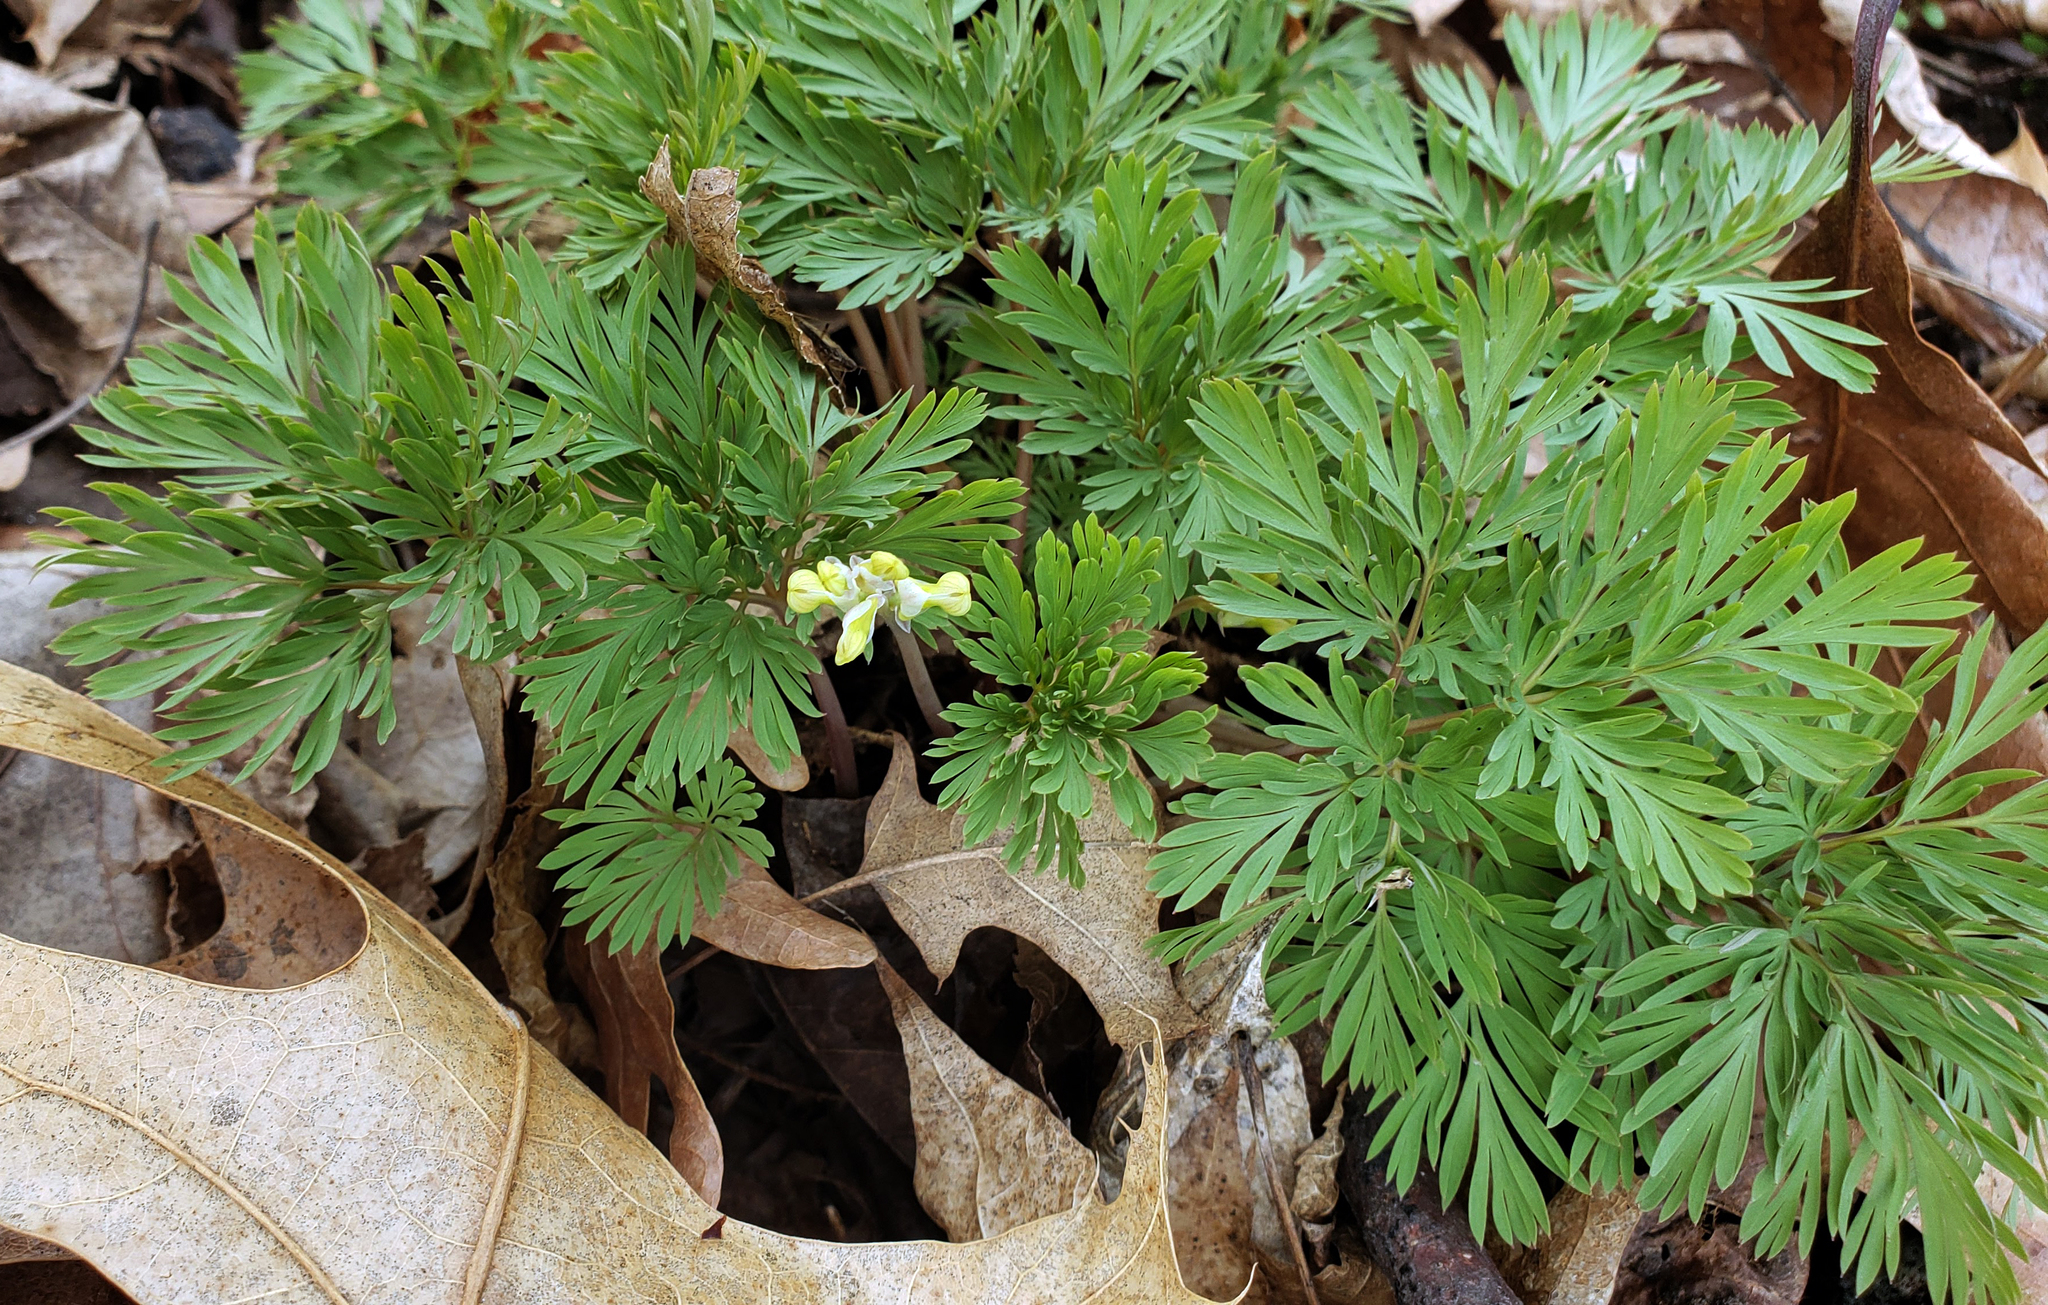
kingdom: Plantae
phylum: Tracheophyta
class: Magnoliopsida
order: Ranunculales
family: Papaveraceae
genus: Dicentra
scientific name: Dicentra cucullaria
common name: Dutchman's breeches
